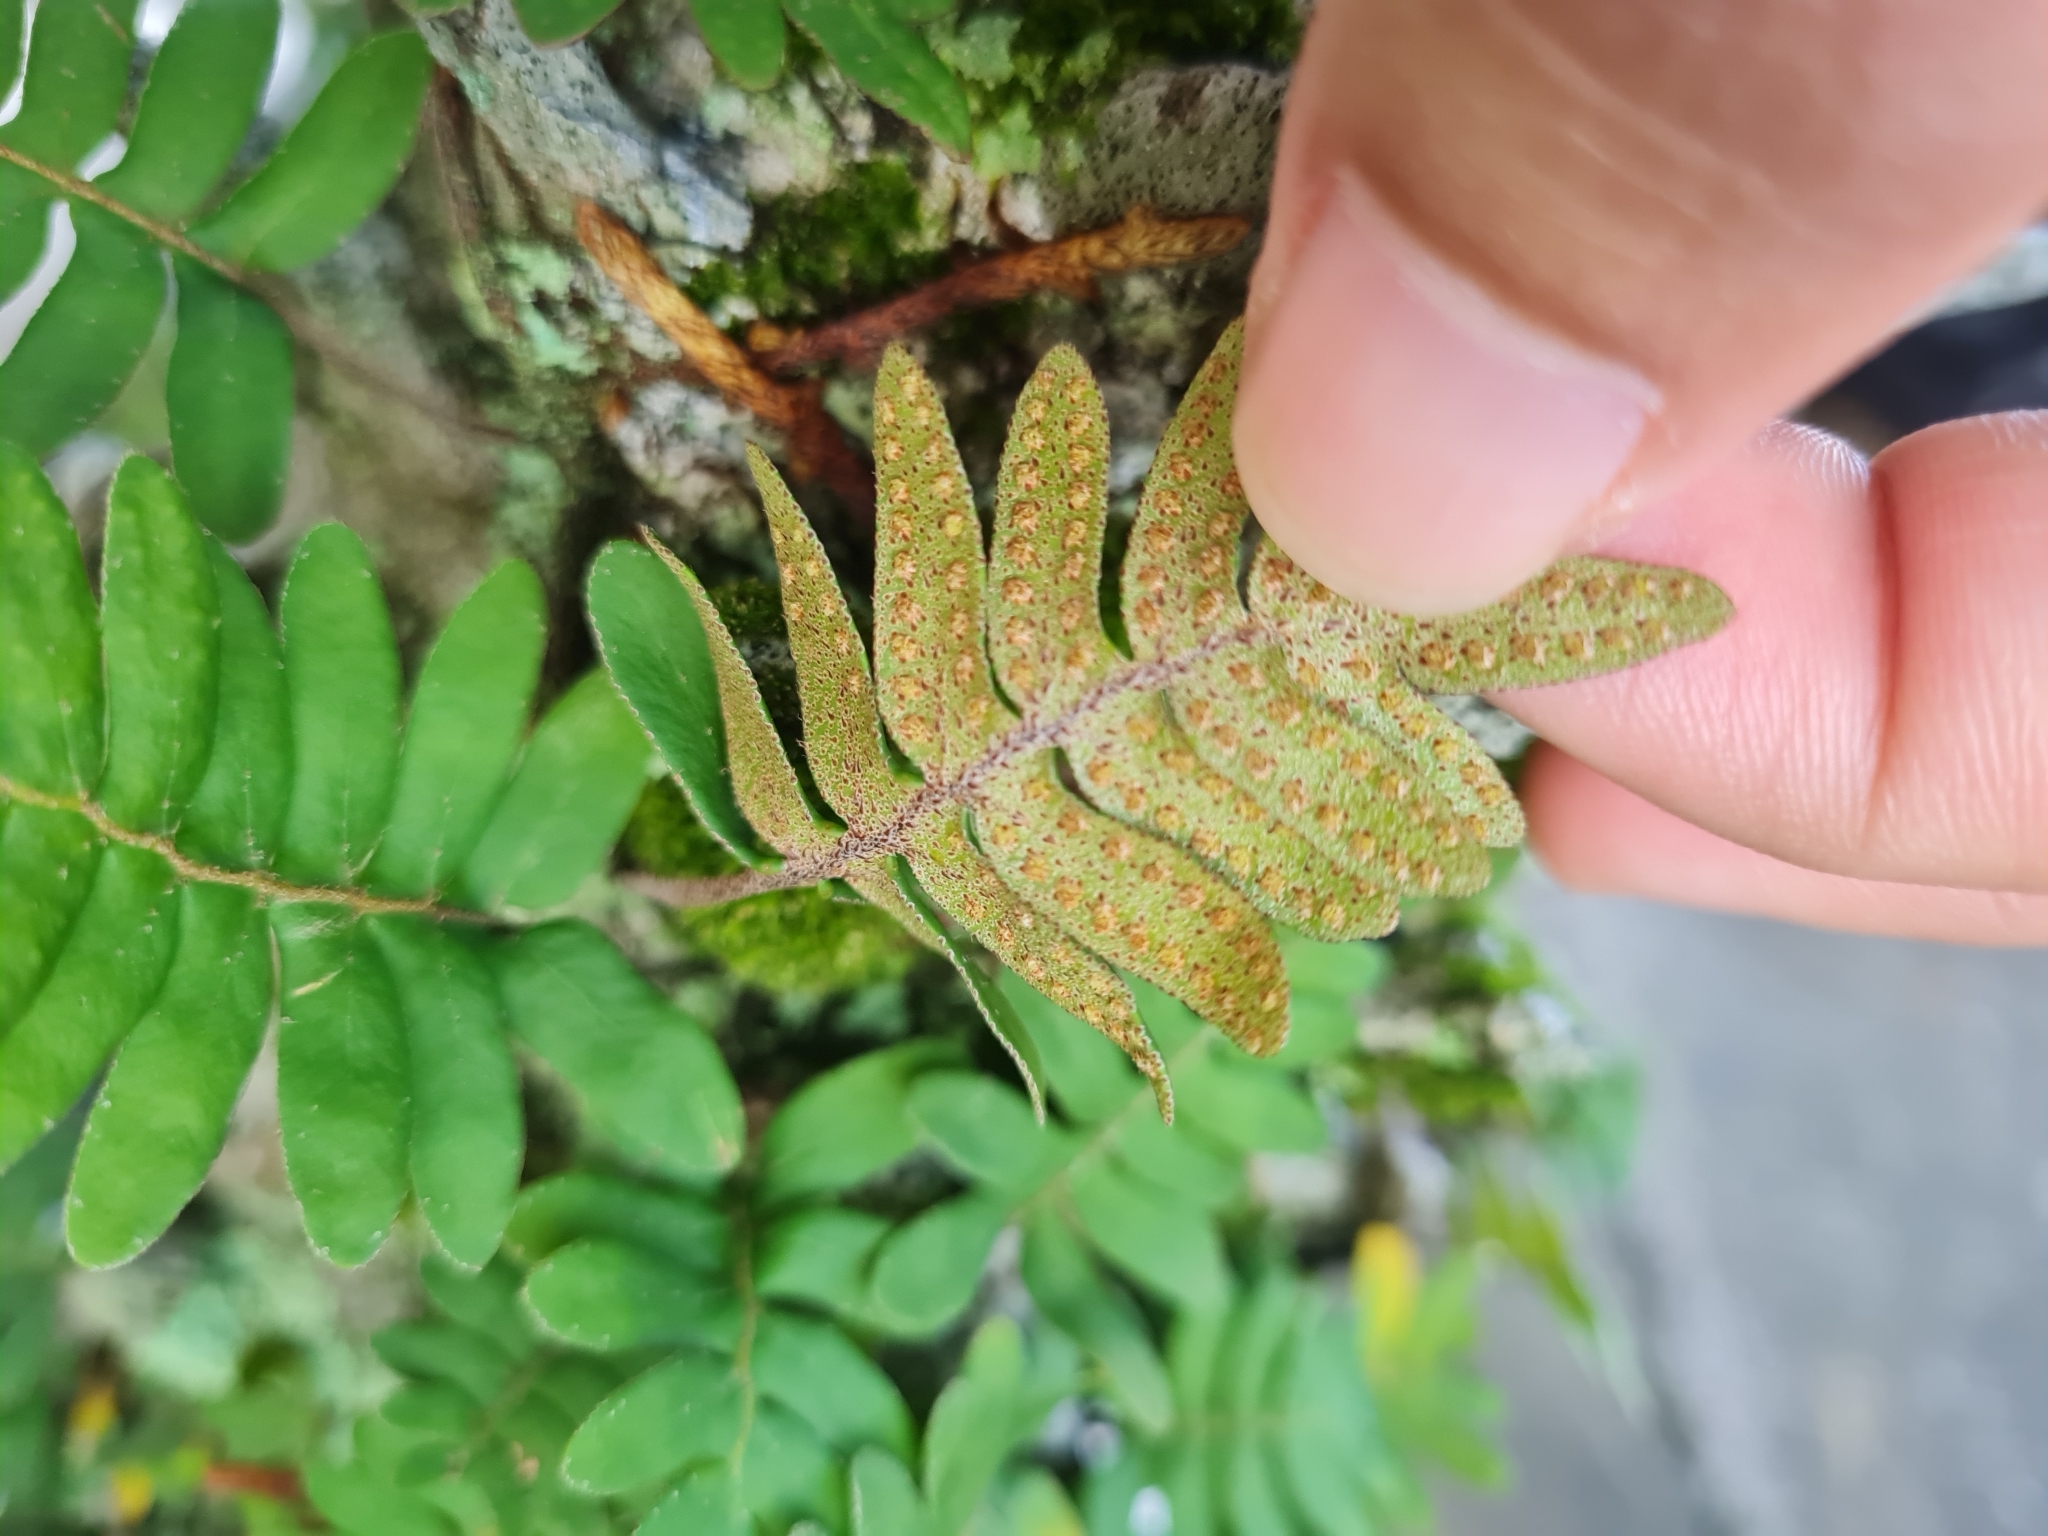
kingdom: Plantae
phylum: Tracheophyta
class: Polypodiopsida
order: Polypodiales
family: Polypodiaceae
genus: Pleopeltis
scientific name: Pleopeltis polypodioides
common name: Resurrection fern
